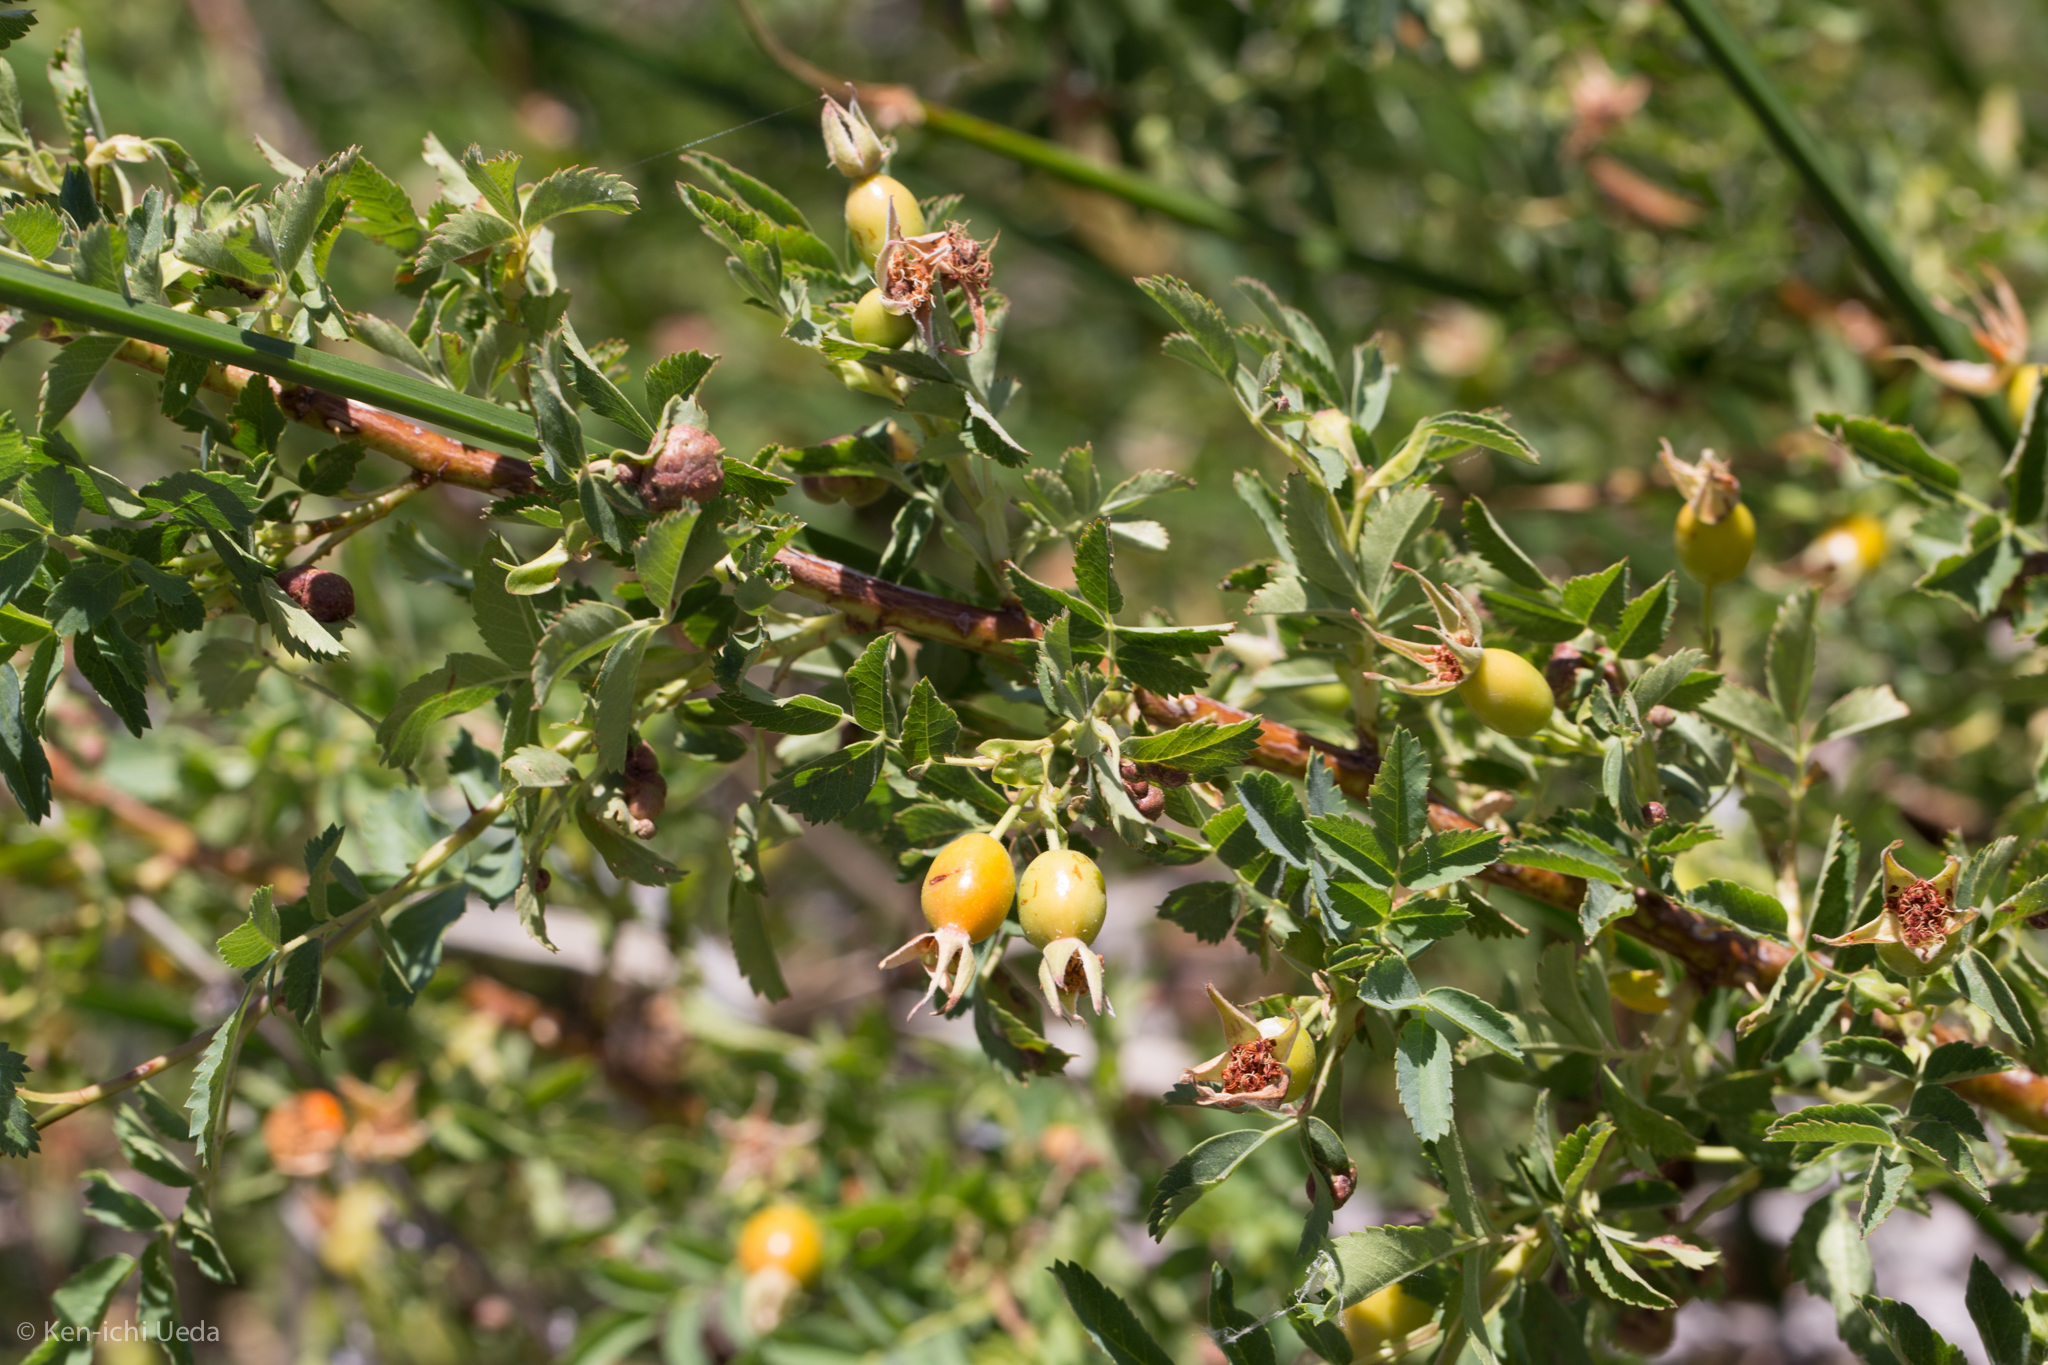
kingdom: Plantae
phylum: Tracheophyta
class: Magnoliopsida
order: Rosales
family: Rosaceae
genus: Rosa
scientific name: Rosa woodsii
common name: Woods's rose
